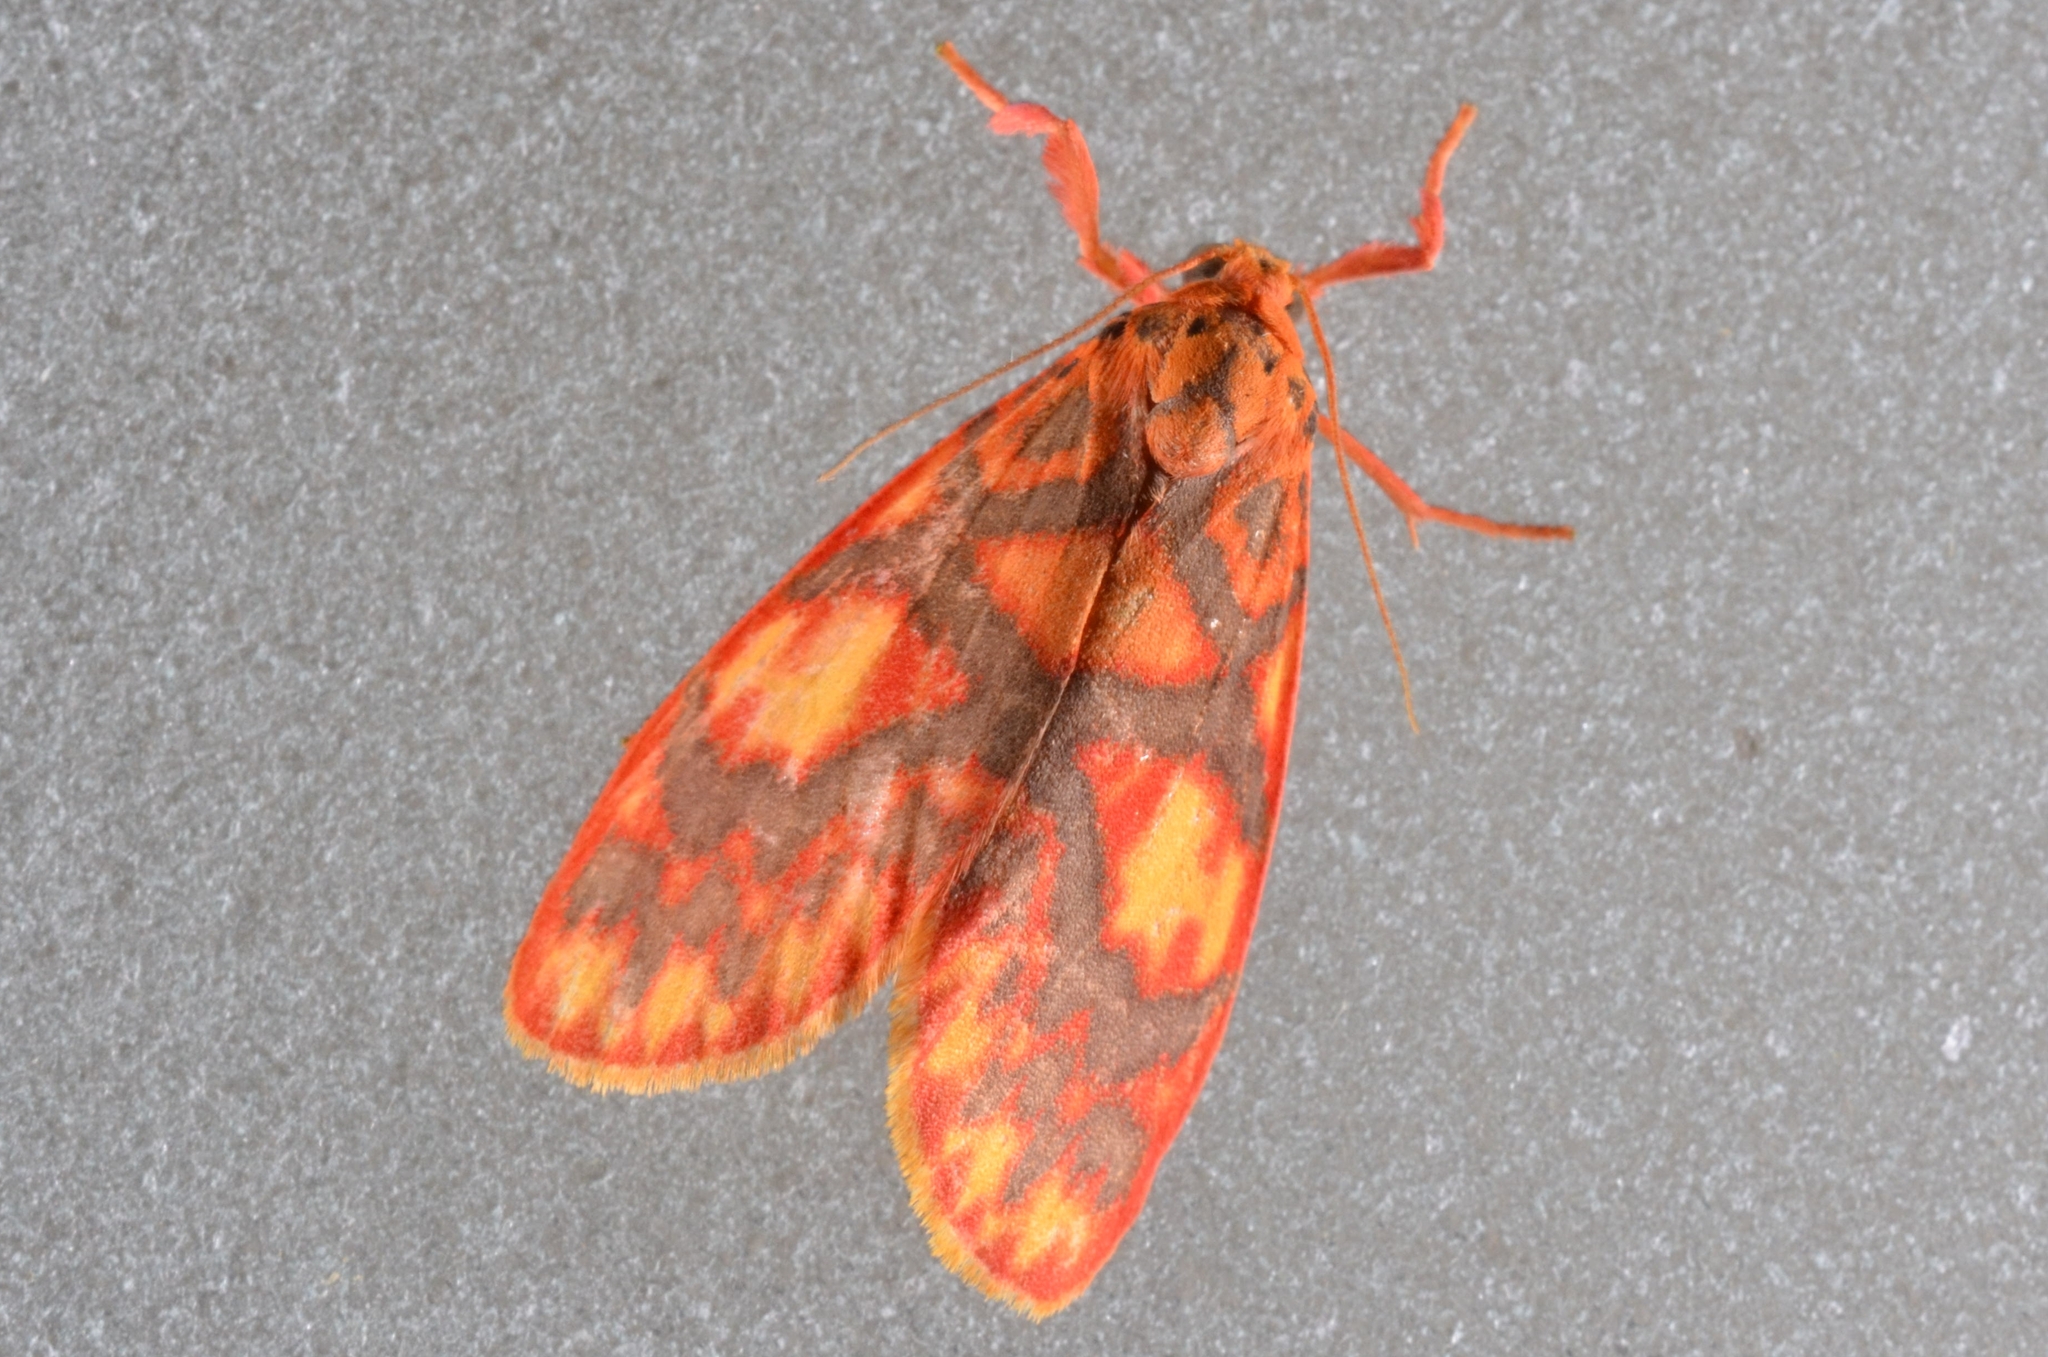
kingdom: Animalia
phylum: Arthropoda
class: Insecta
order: Lepidoptera
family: Erebidae
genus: Floridasura
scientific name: Floridasura tricolor
